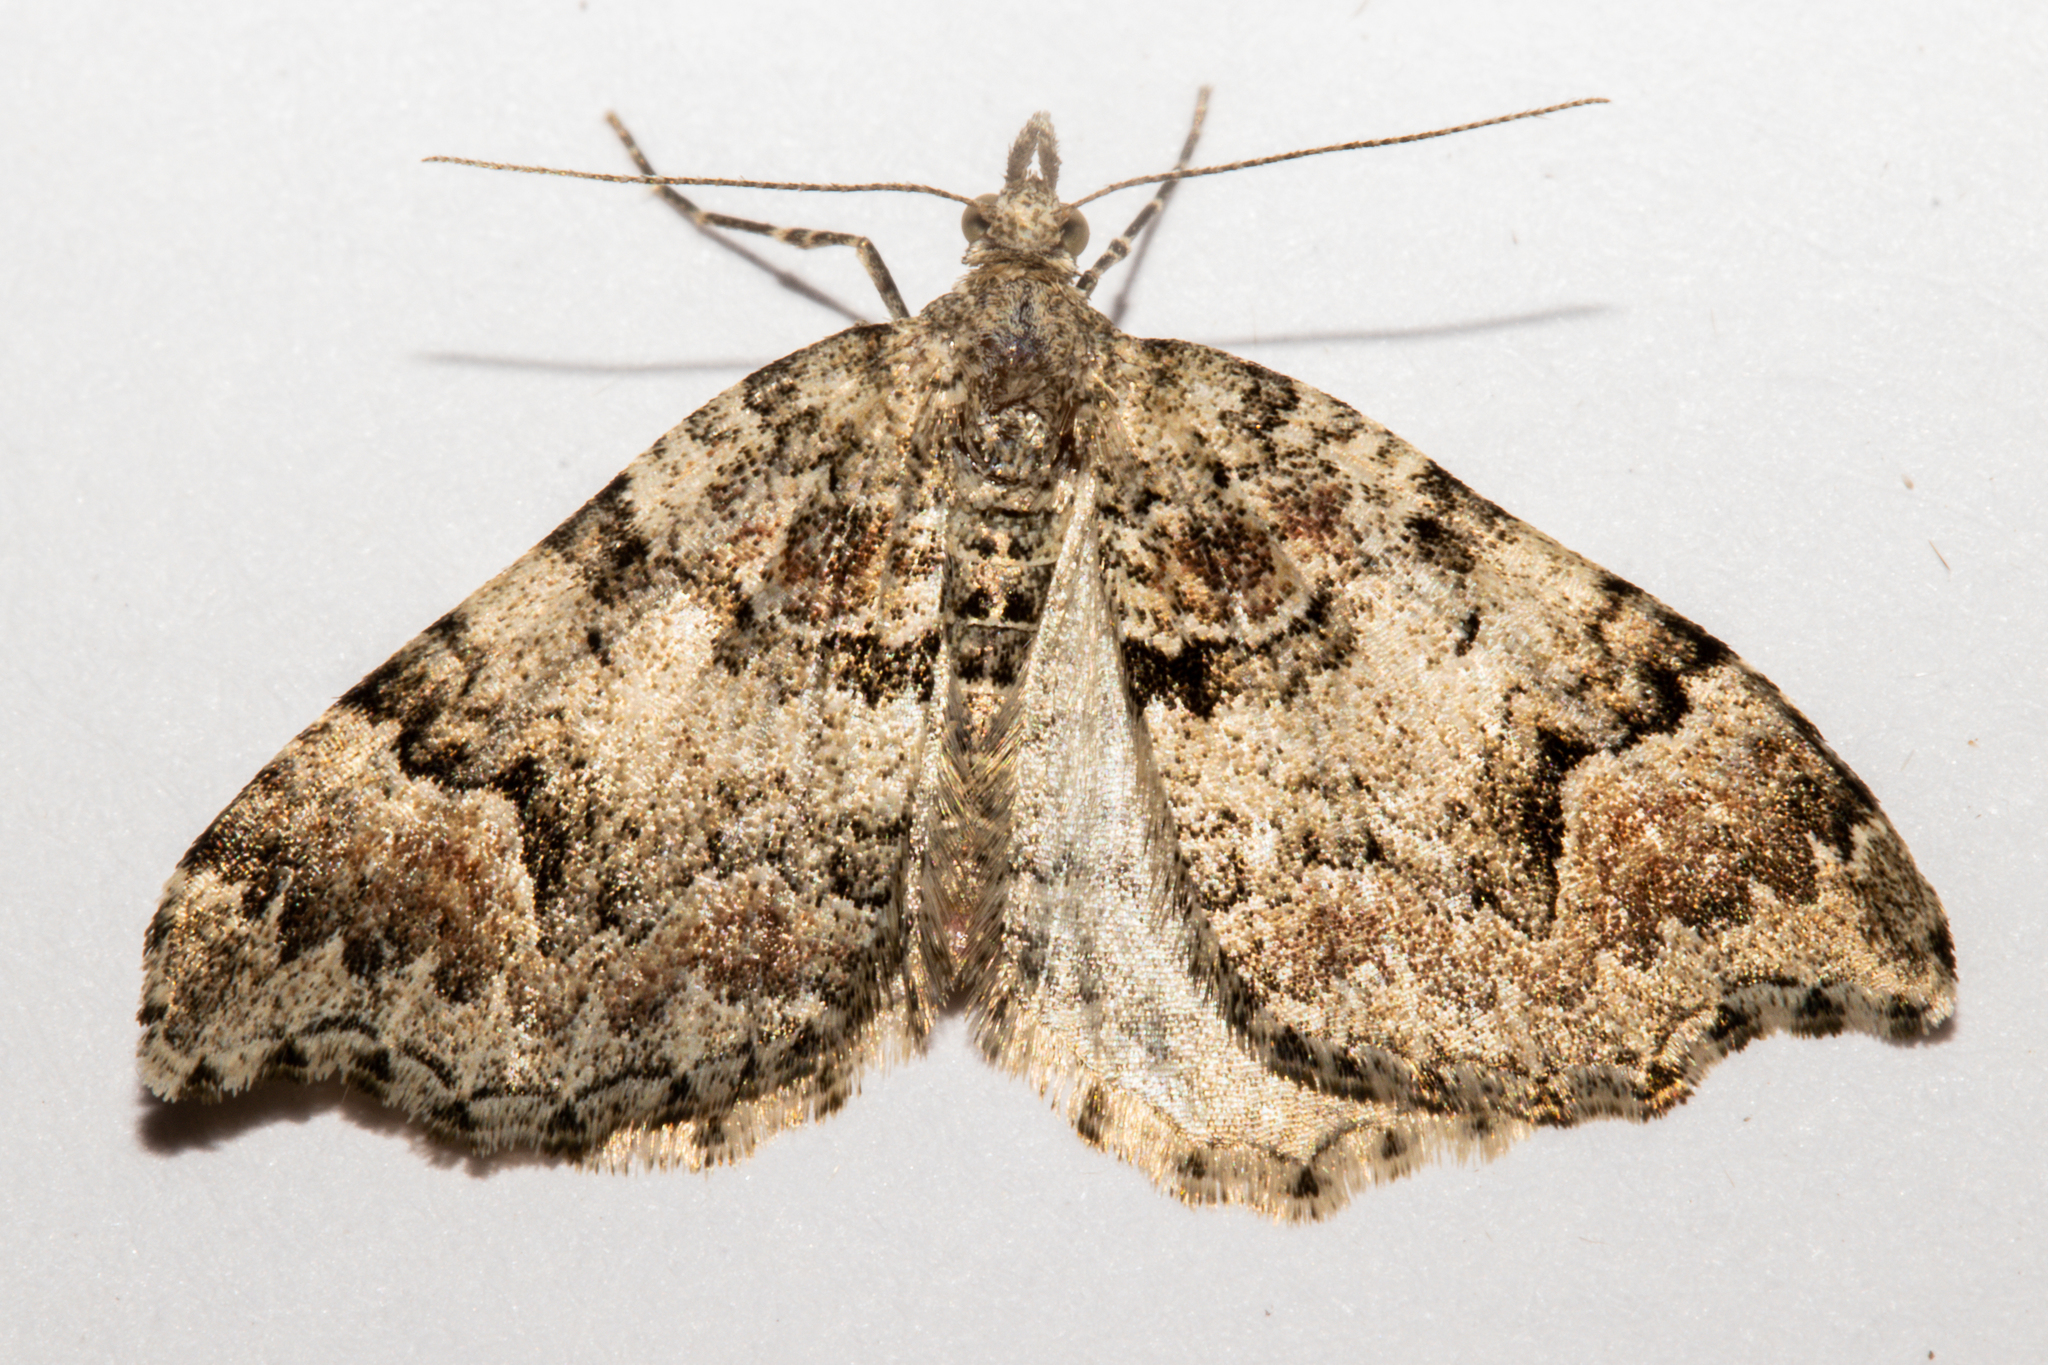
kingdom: Animalia
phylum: Arthropoda
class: Insecta
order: Lepidoptera
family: Geometridae
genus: Helastia
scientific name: Helastia cryptica
